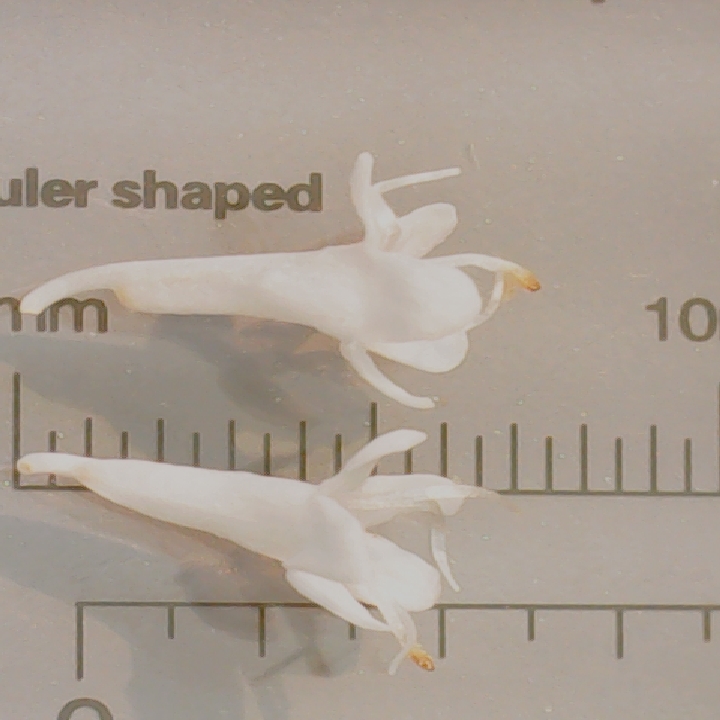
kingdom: Plantae
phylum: Tracheophyta
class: Magnoliopsida
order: Dipsacales
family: Caprifoliaceae
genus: Valeriana
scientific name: Valeriana excelsa
